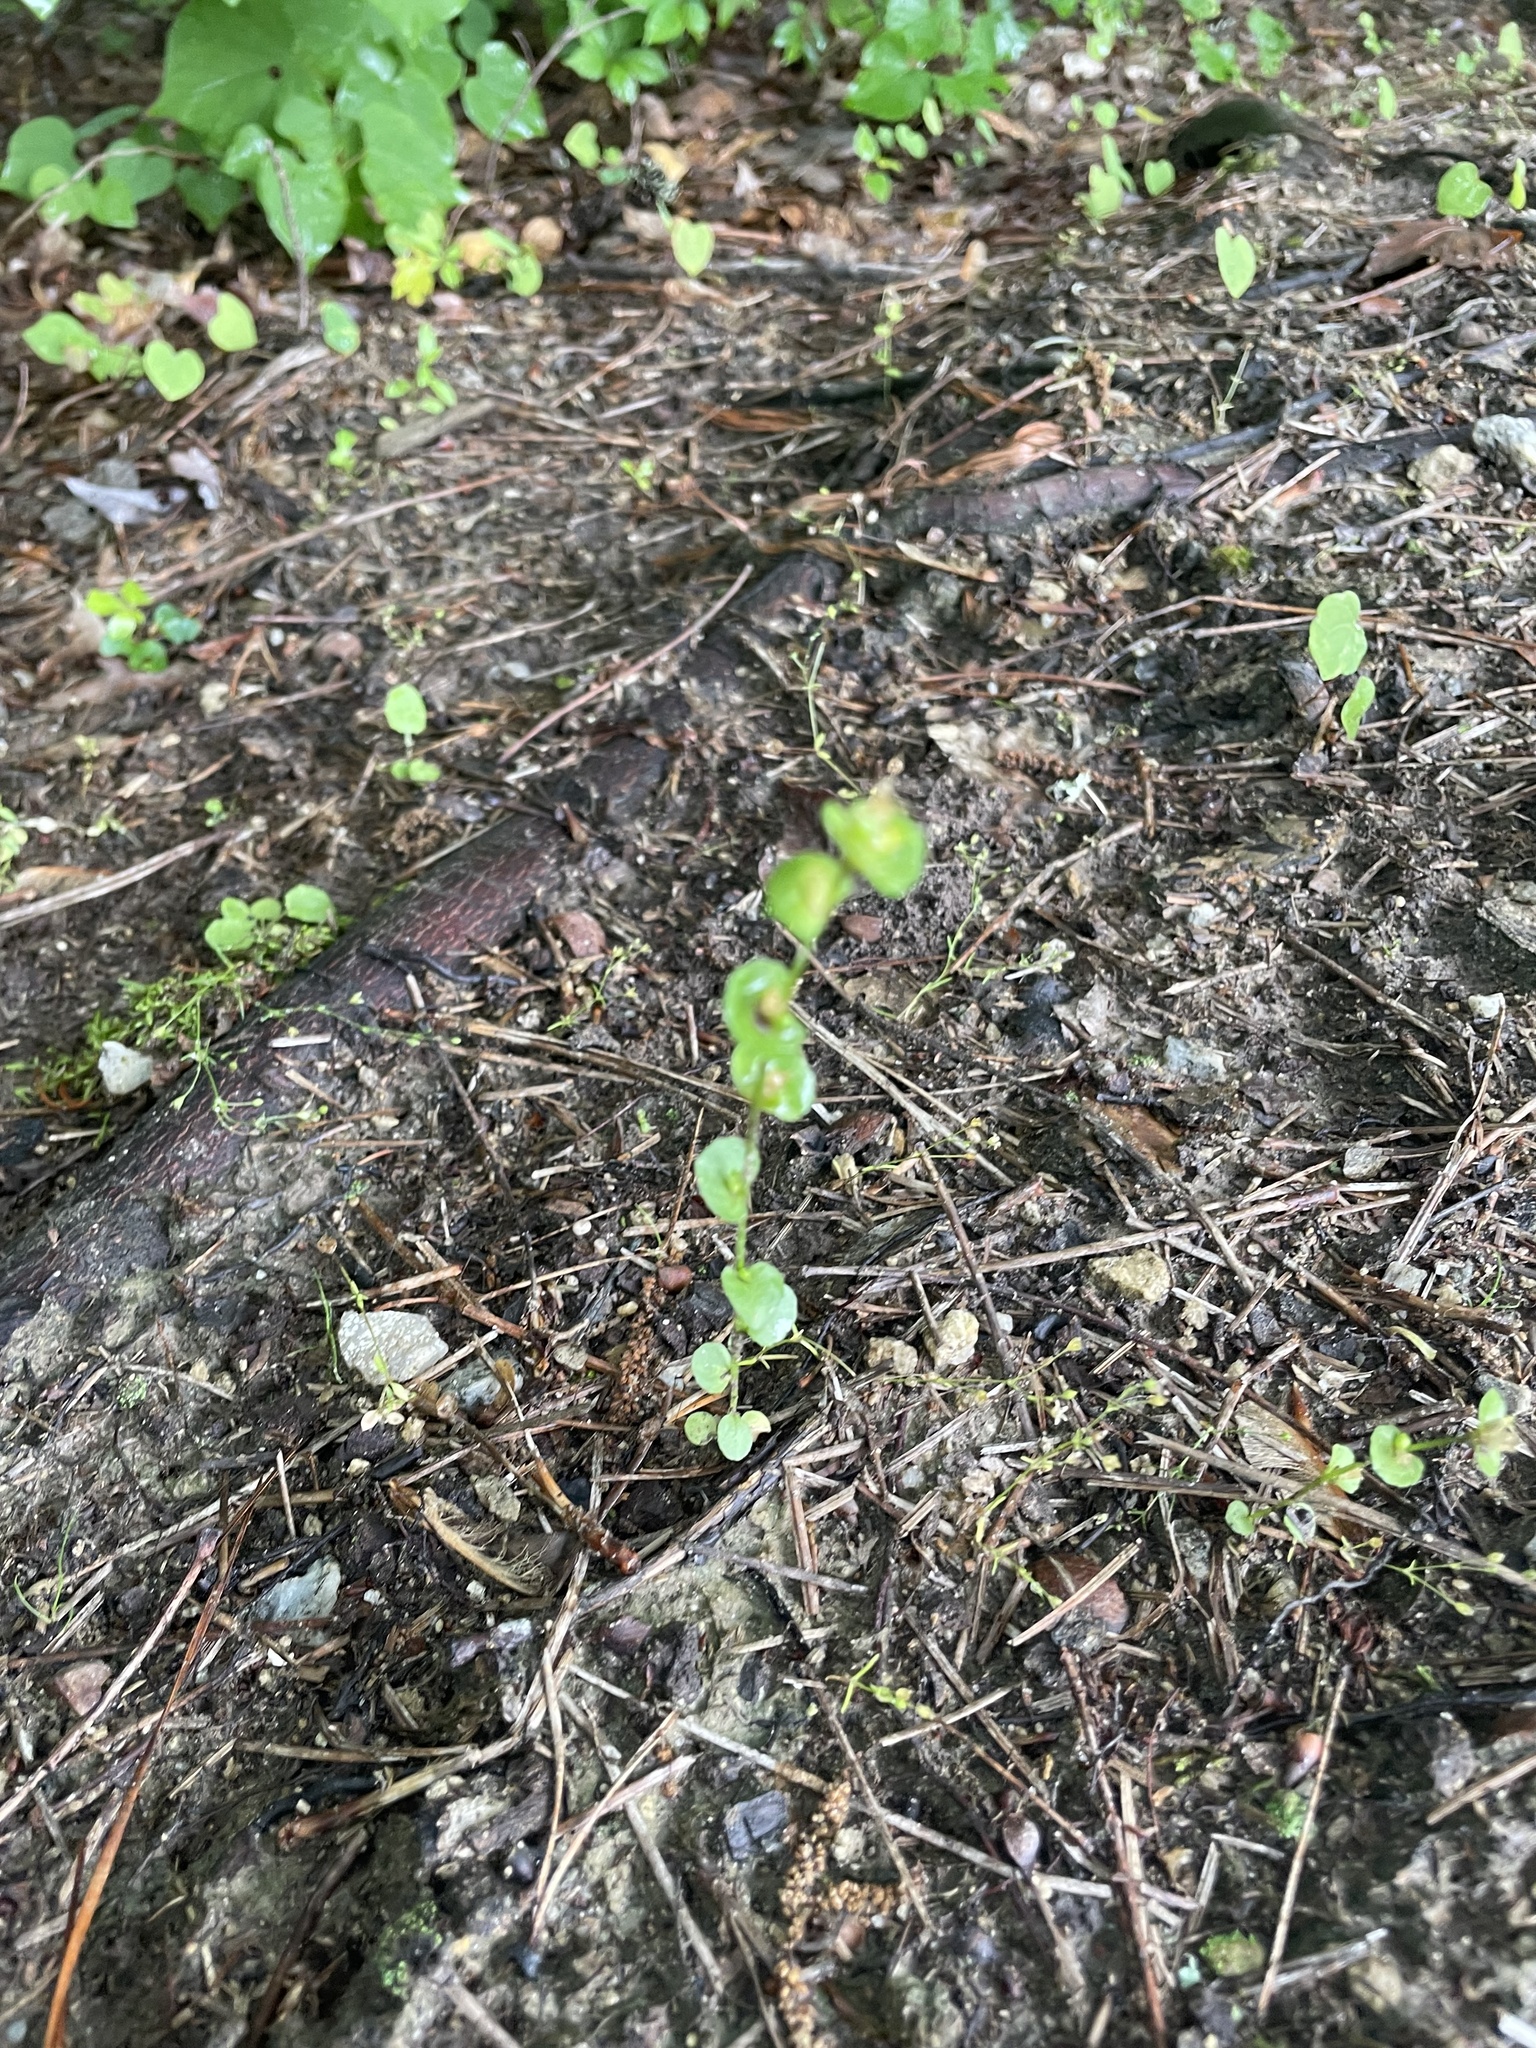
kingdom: Plantae
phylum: Tracheophyta
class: Magnoliopsida
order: Asterales
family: Campanulaceae
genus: Triodanis
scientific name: Triodanis perfoliata
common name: Clasping venus' looking-glass
